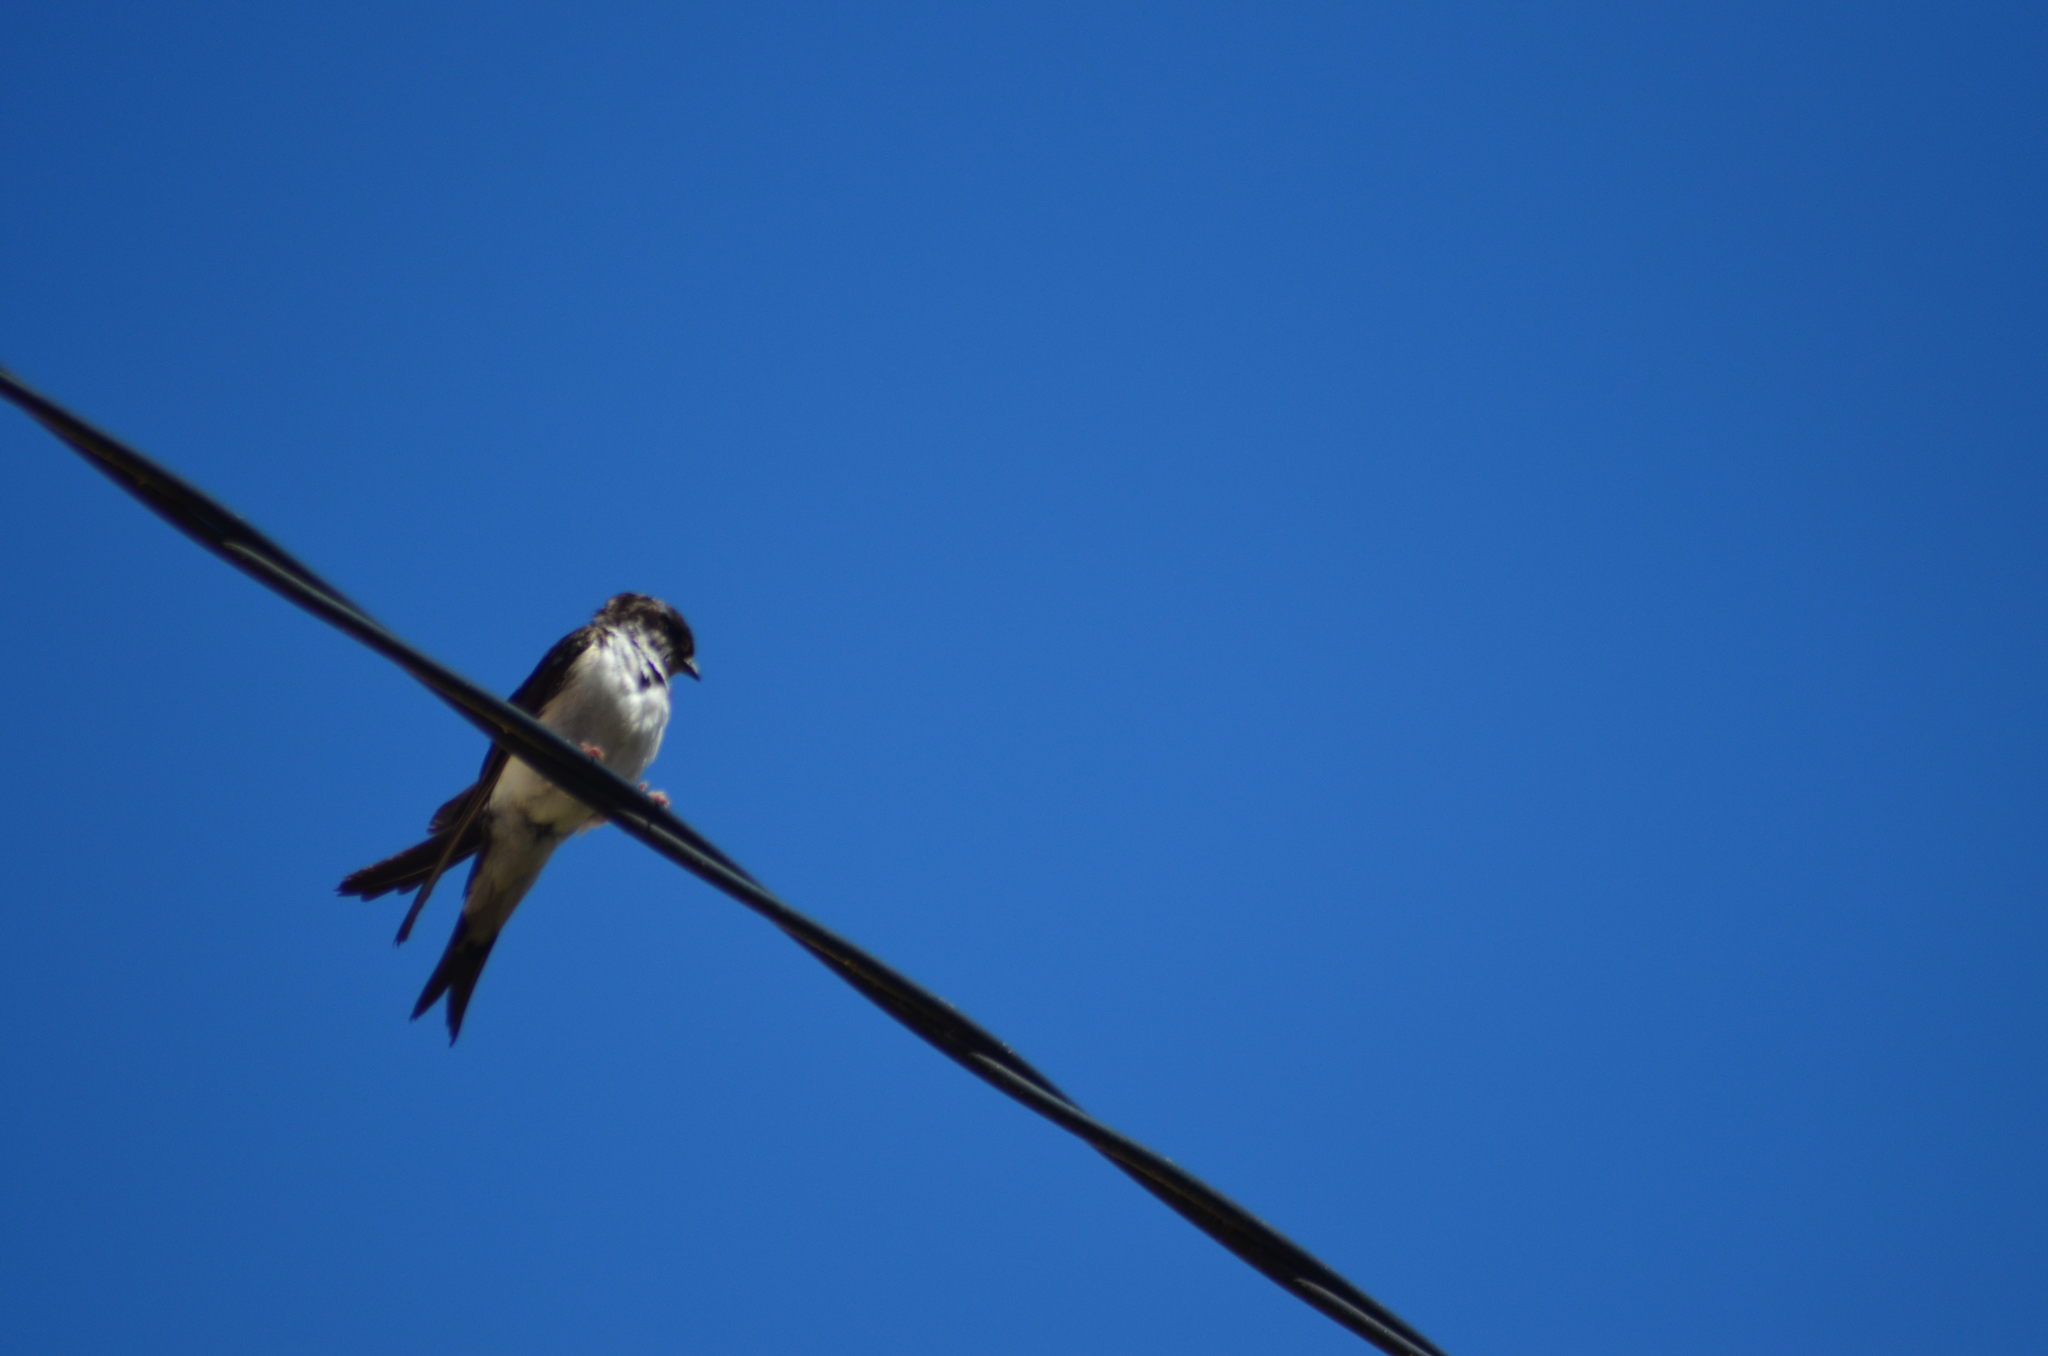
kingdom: Animalia
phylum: Chordata
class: Aves
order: Passeriformes
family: Hirundinidae
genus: Delichon
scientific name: Delichon urbicum
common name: Common house martin
